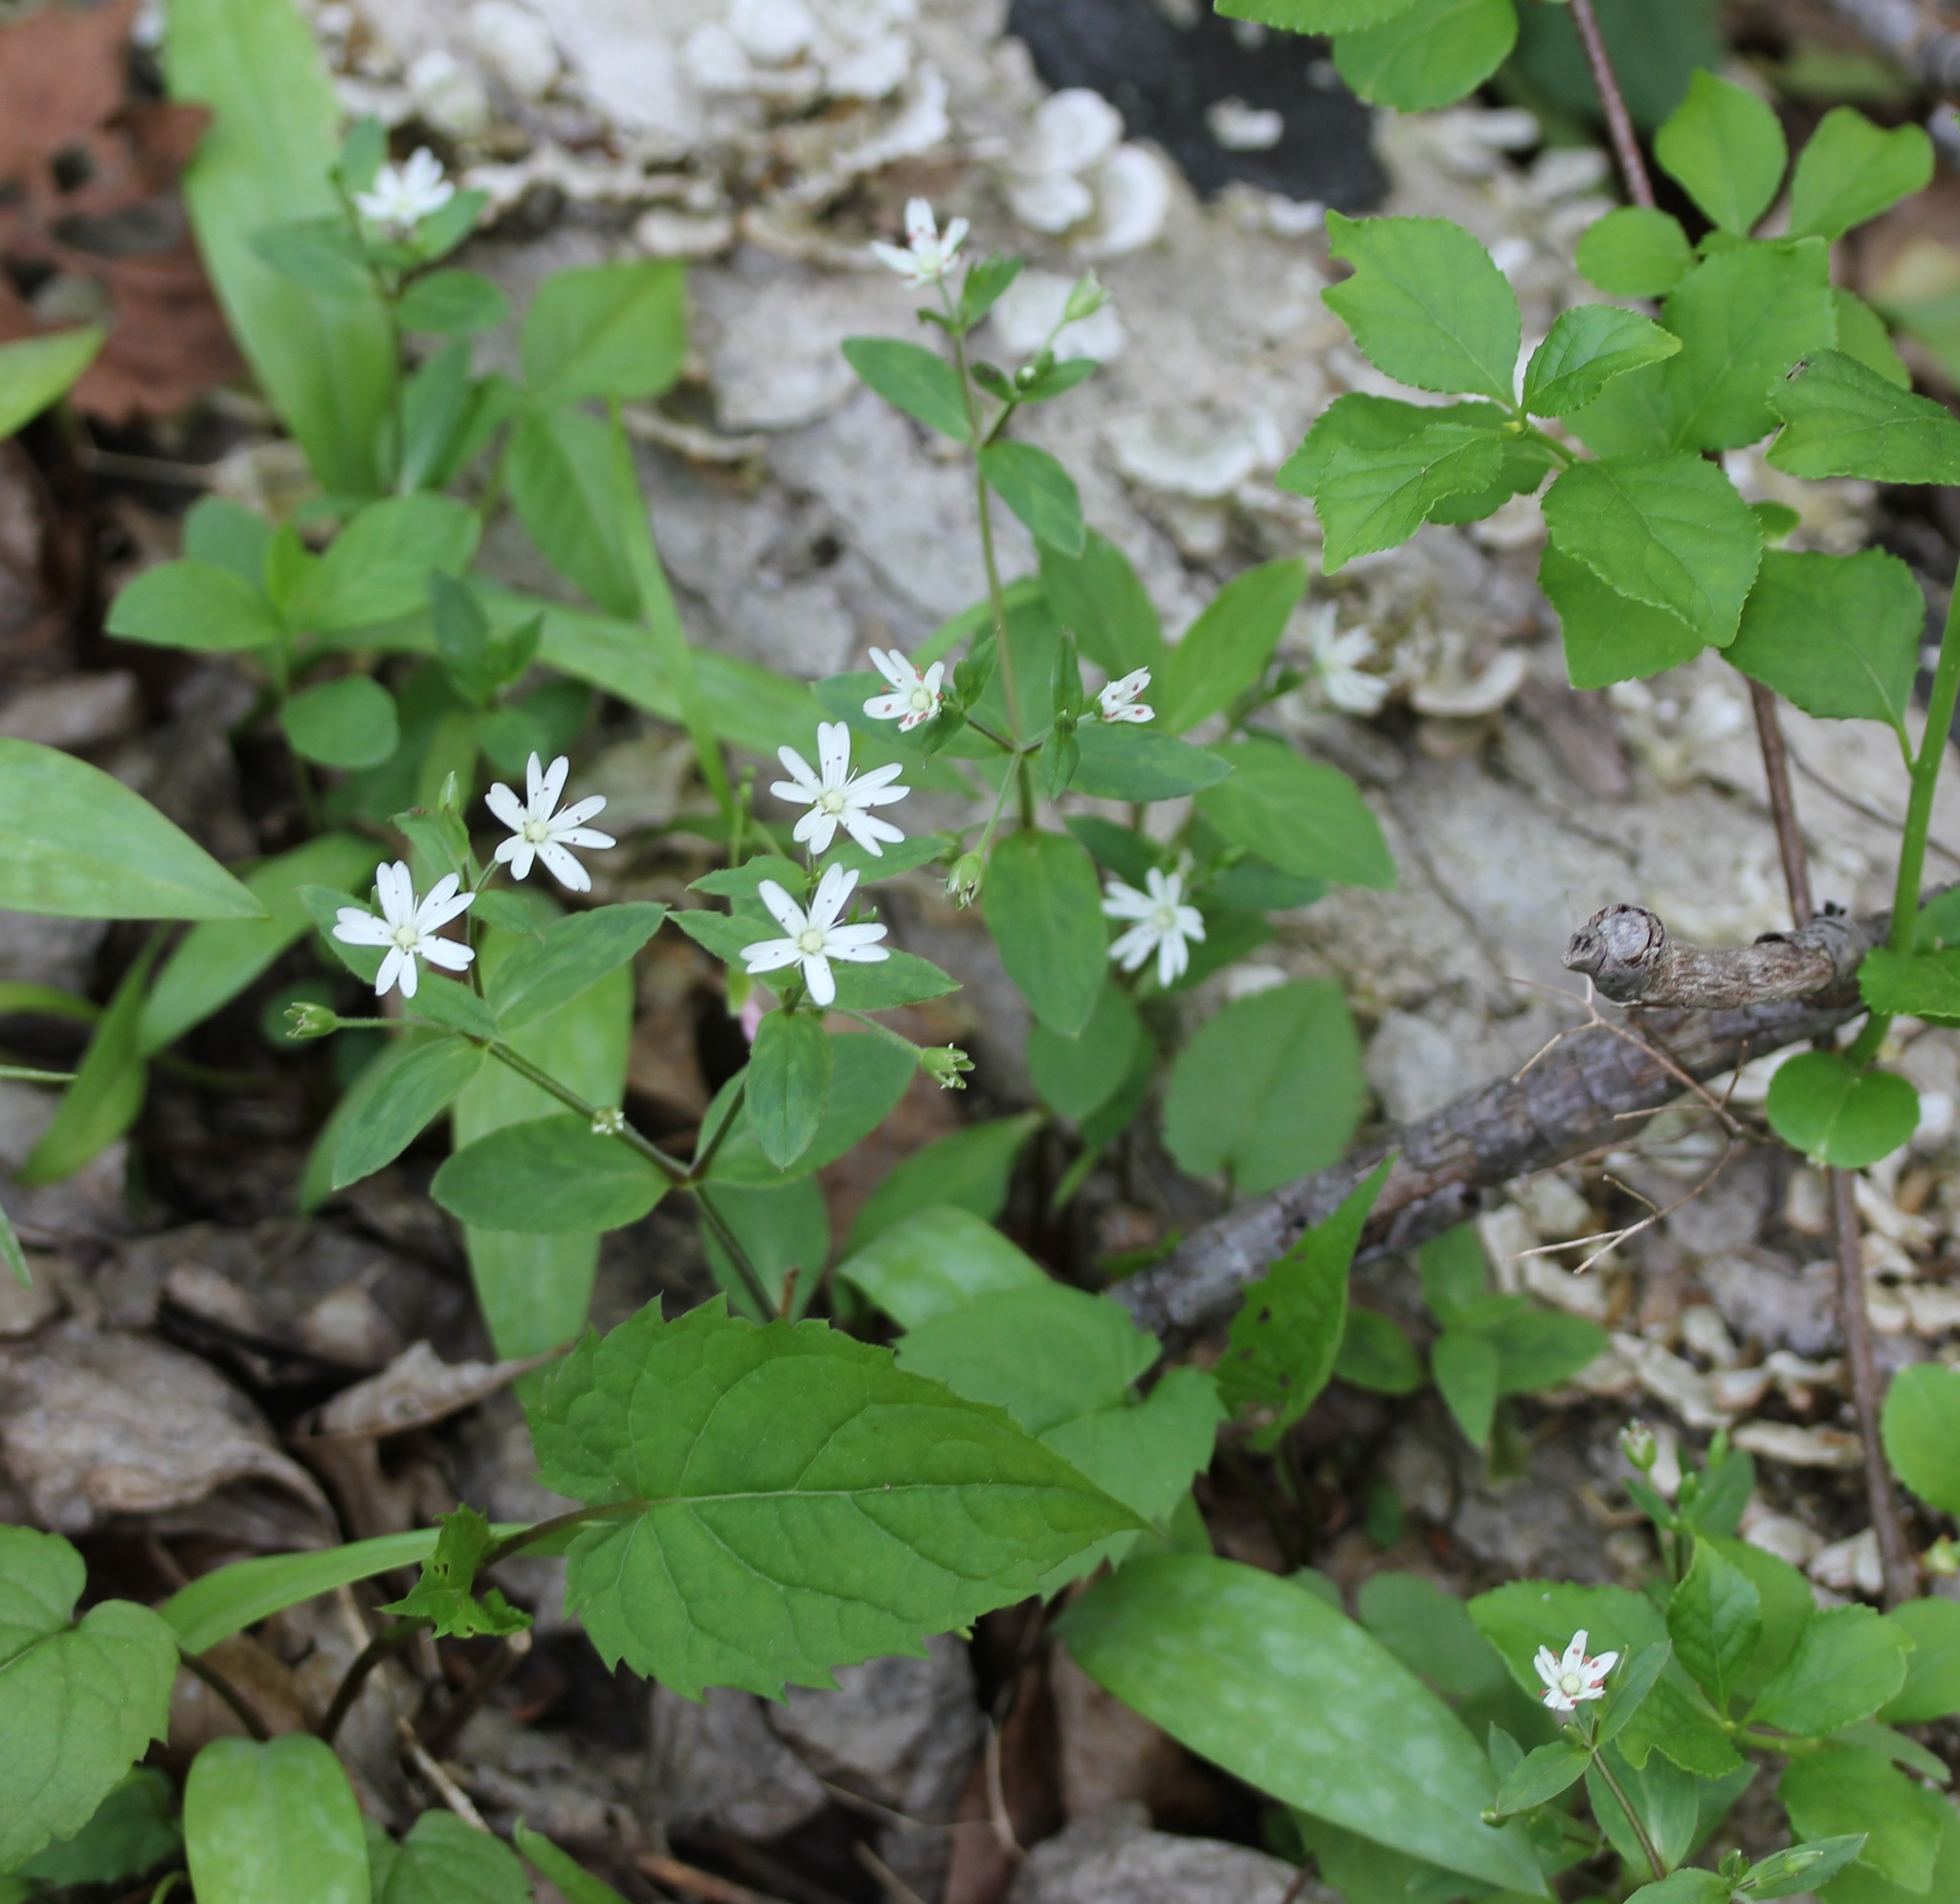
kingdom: Plantae
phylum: Tracheophyta
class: Magnoliopsida
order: Caryophyllales
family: Caryophyllaceae
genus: Stellaria
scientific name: Stellaria pubera
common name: Star chickweed
